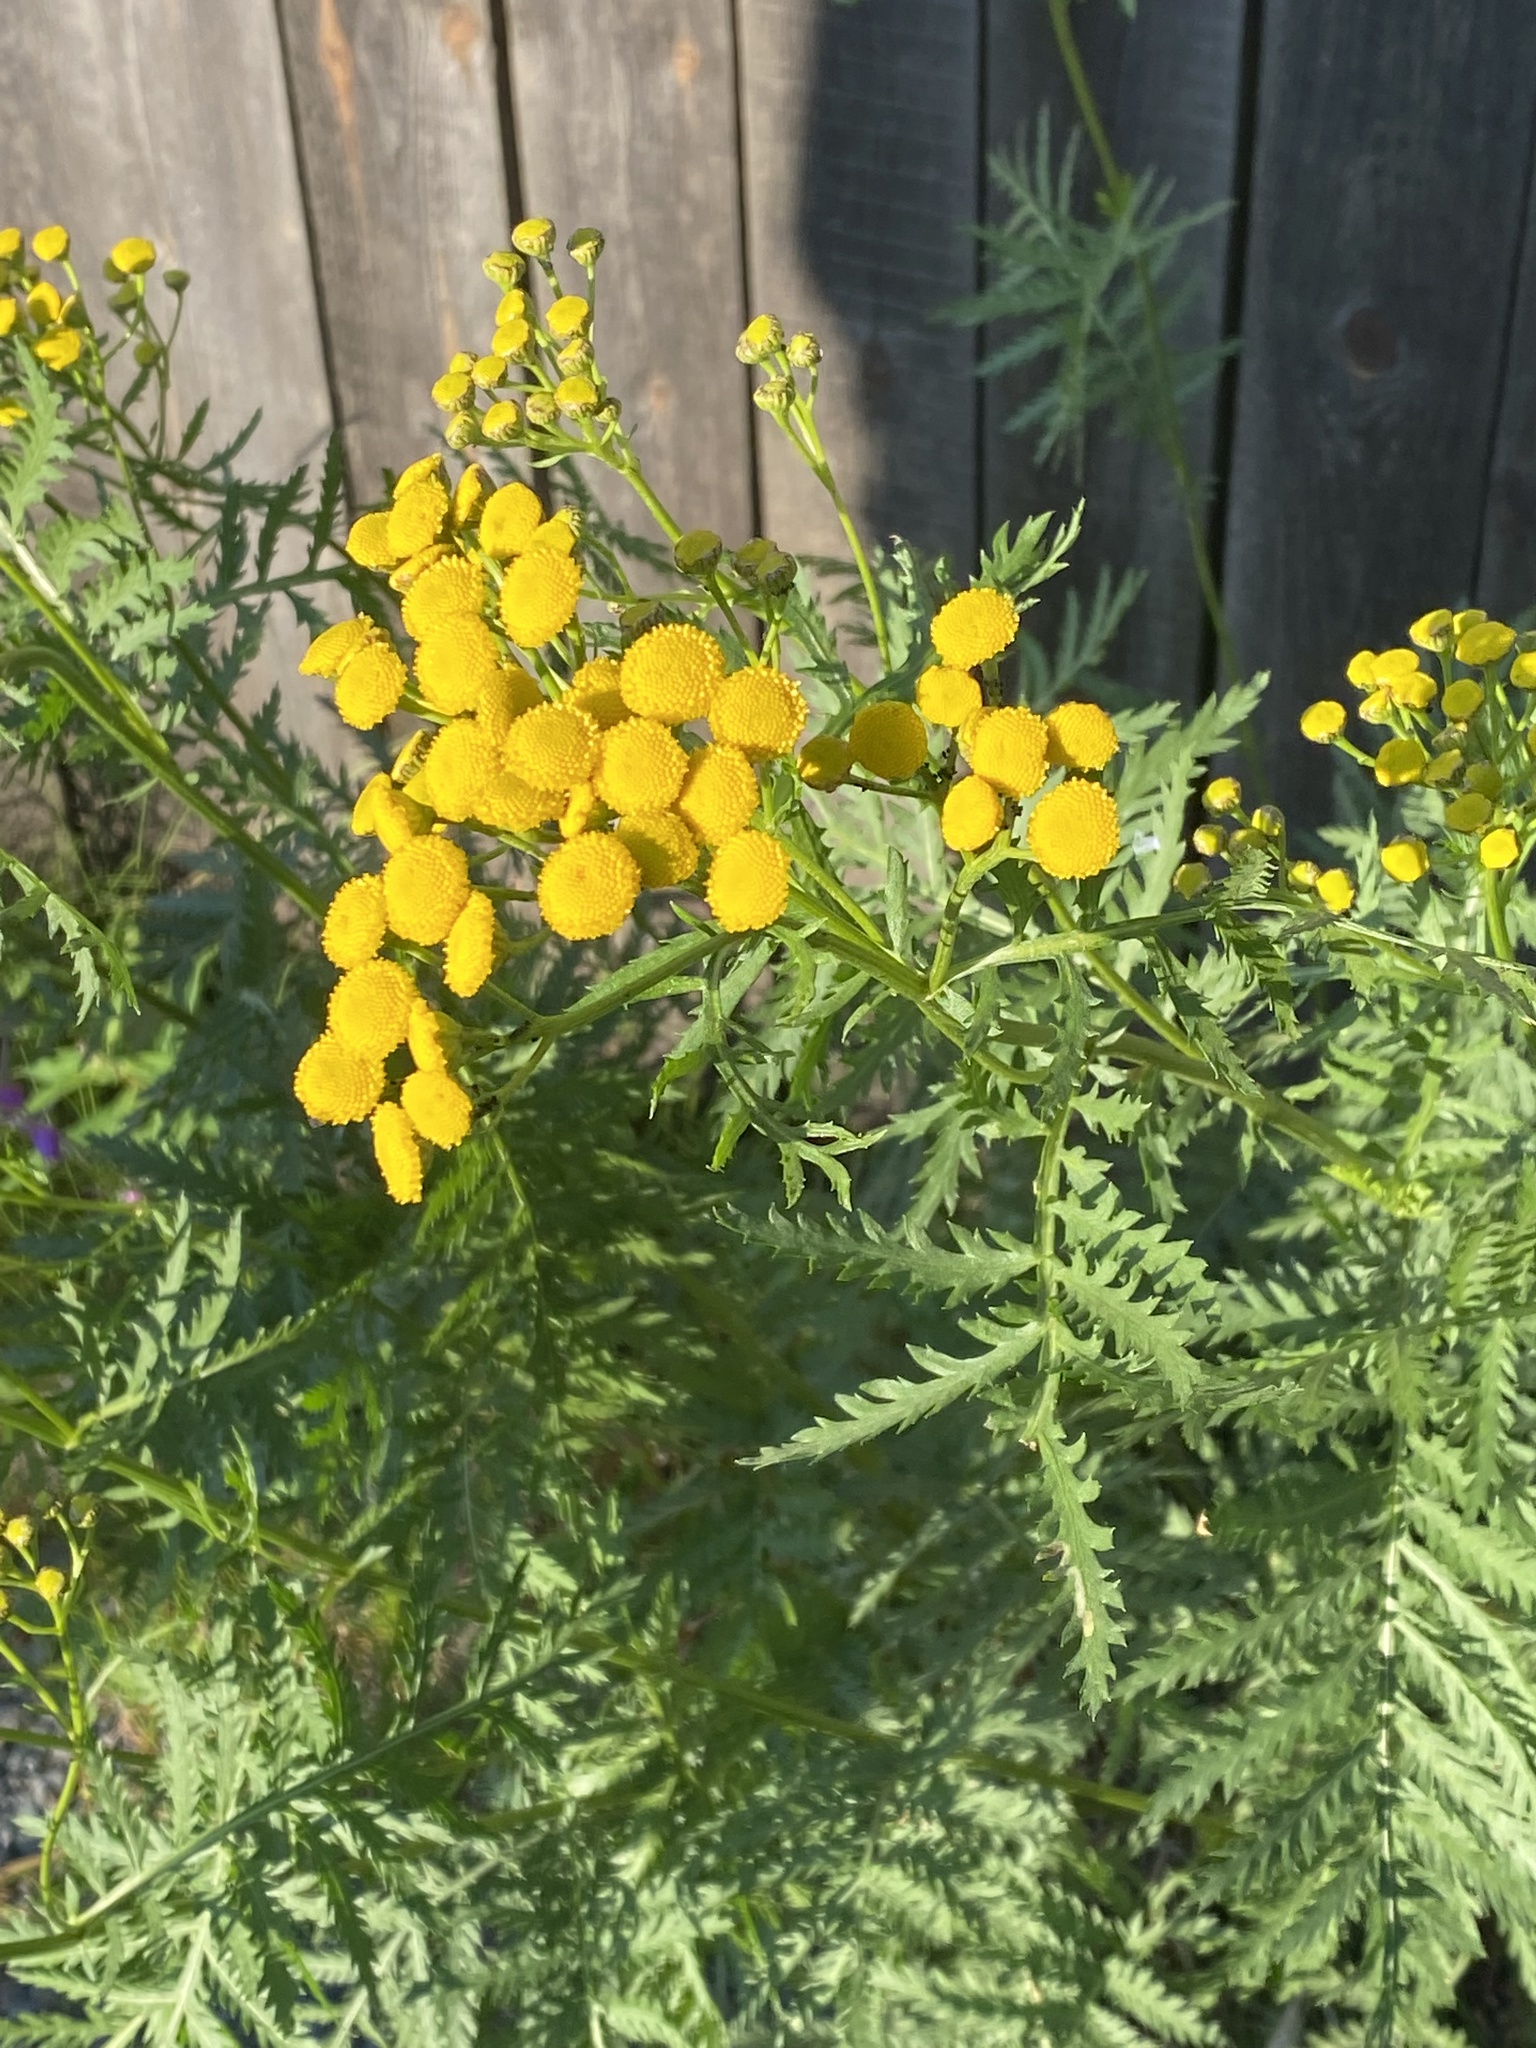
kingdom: Plantae
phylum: Tracheophyta
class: Magnoliopsida
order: Asterales
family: Asteraceae
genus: Tanacetum
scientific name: Tanacetum vulgare
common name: Common tansy
